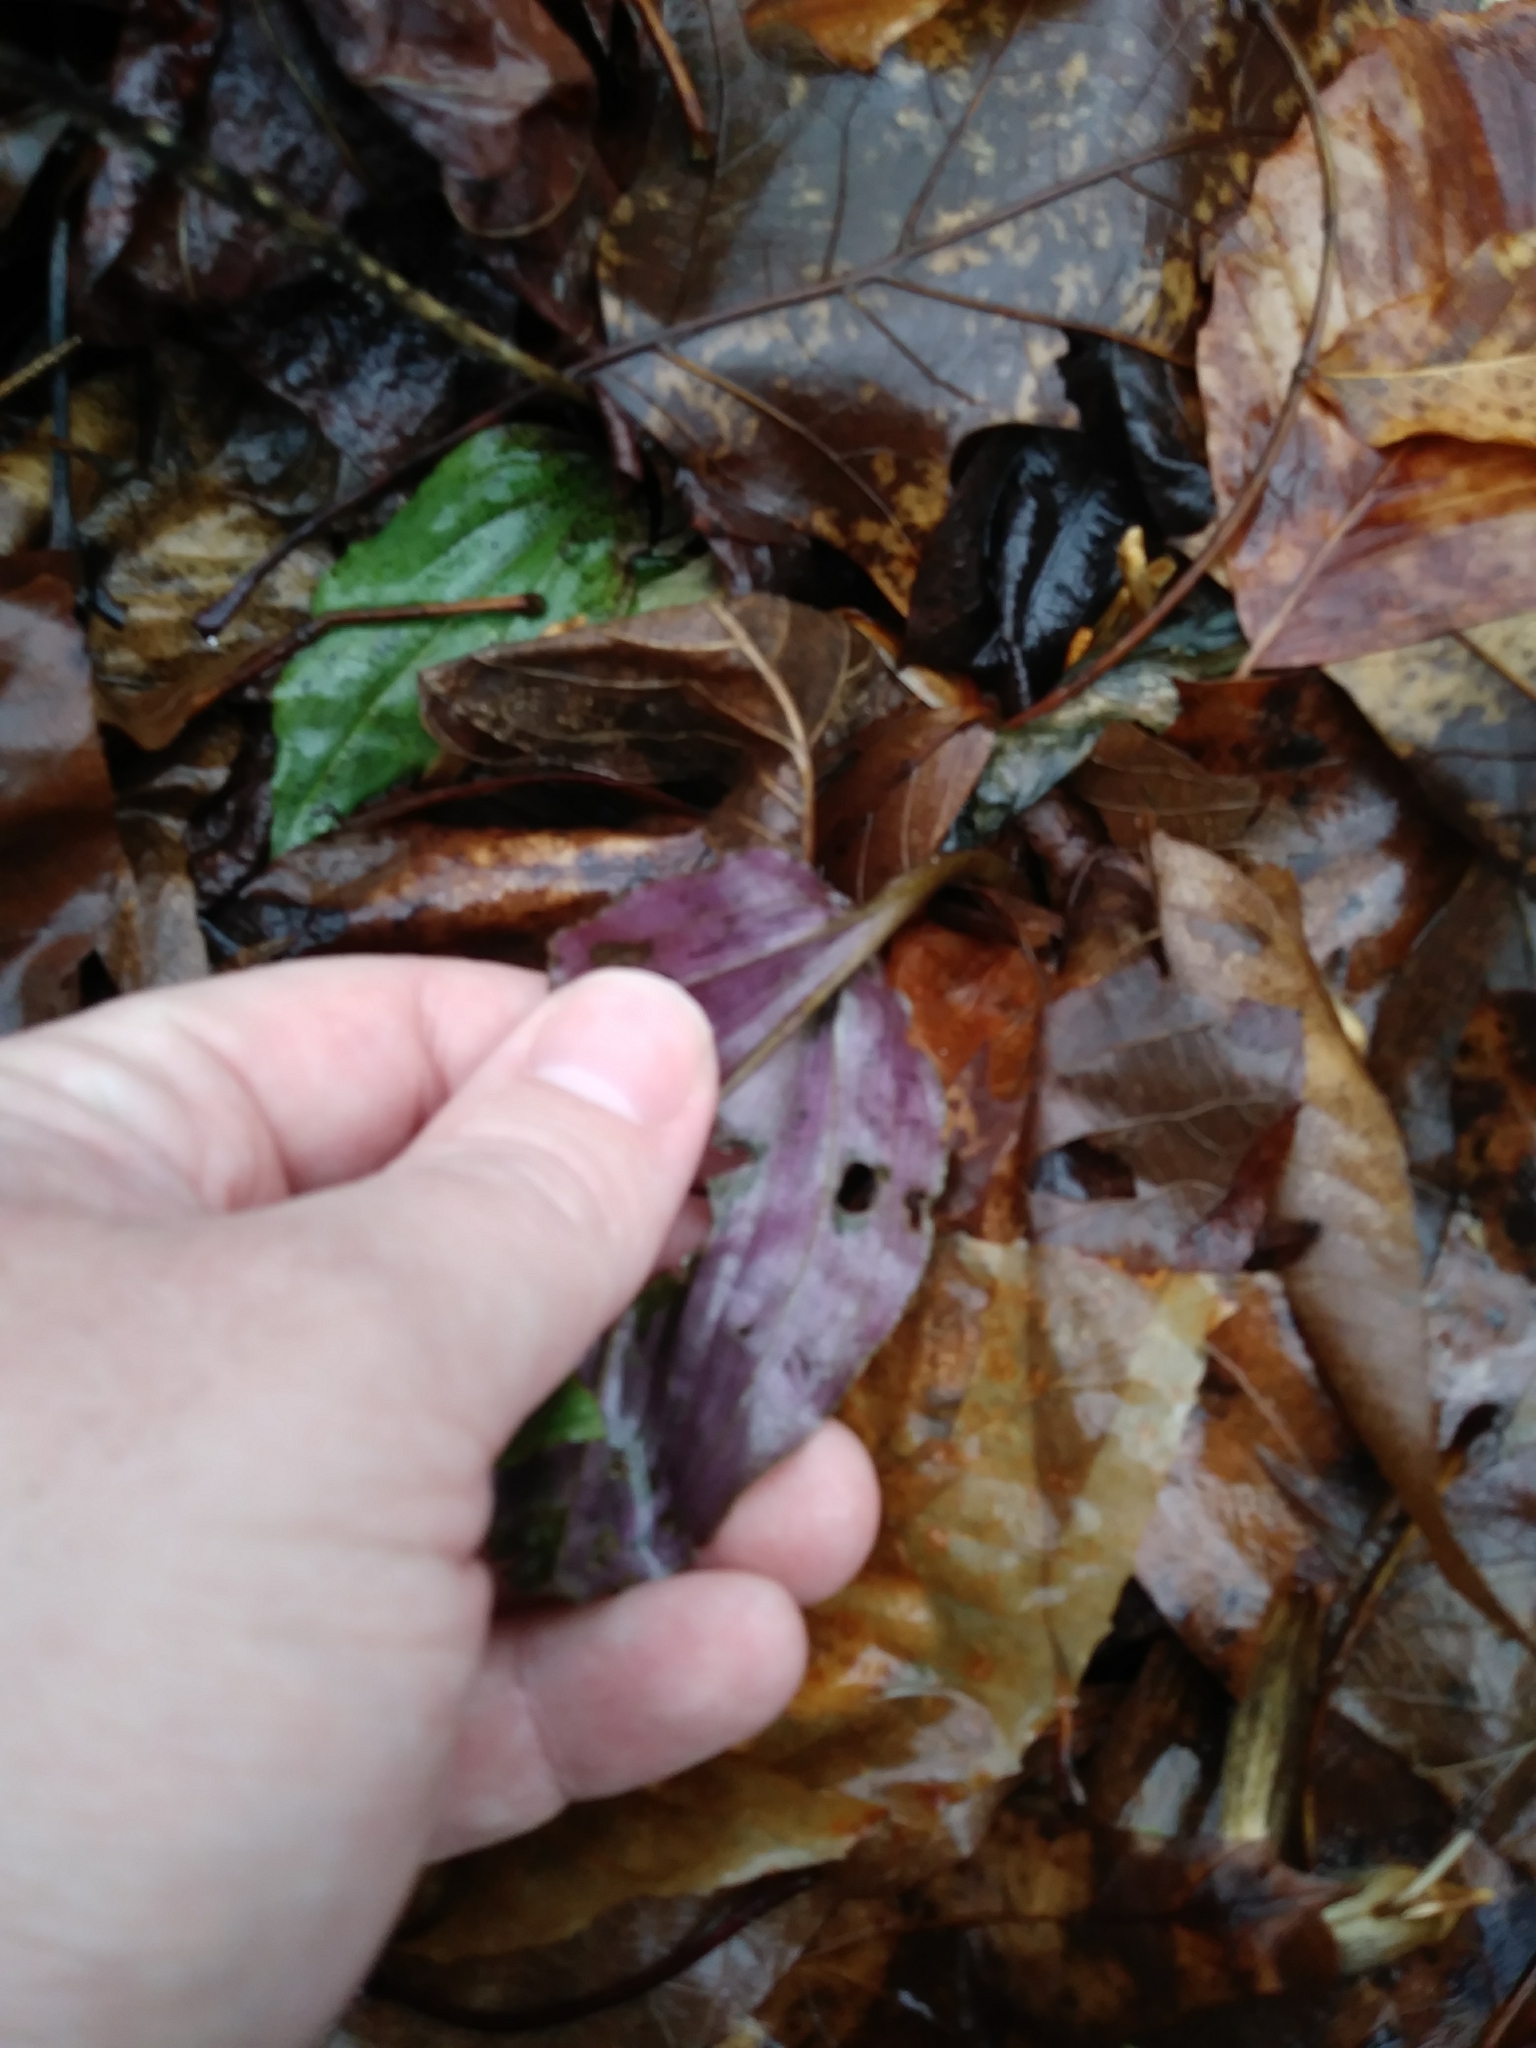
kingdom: Plantae
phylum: Tracheophyta
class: Liliopsida
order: Asparagales
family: Orchidaceae
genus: Tipularia
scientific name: Tipularia discolor
